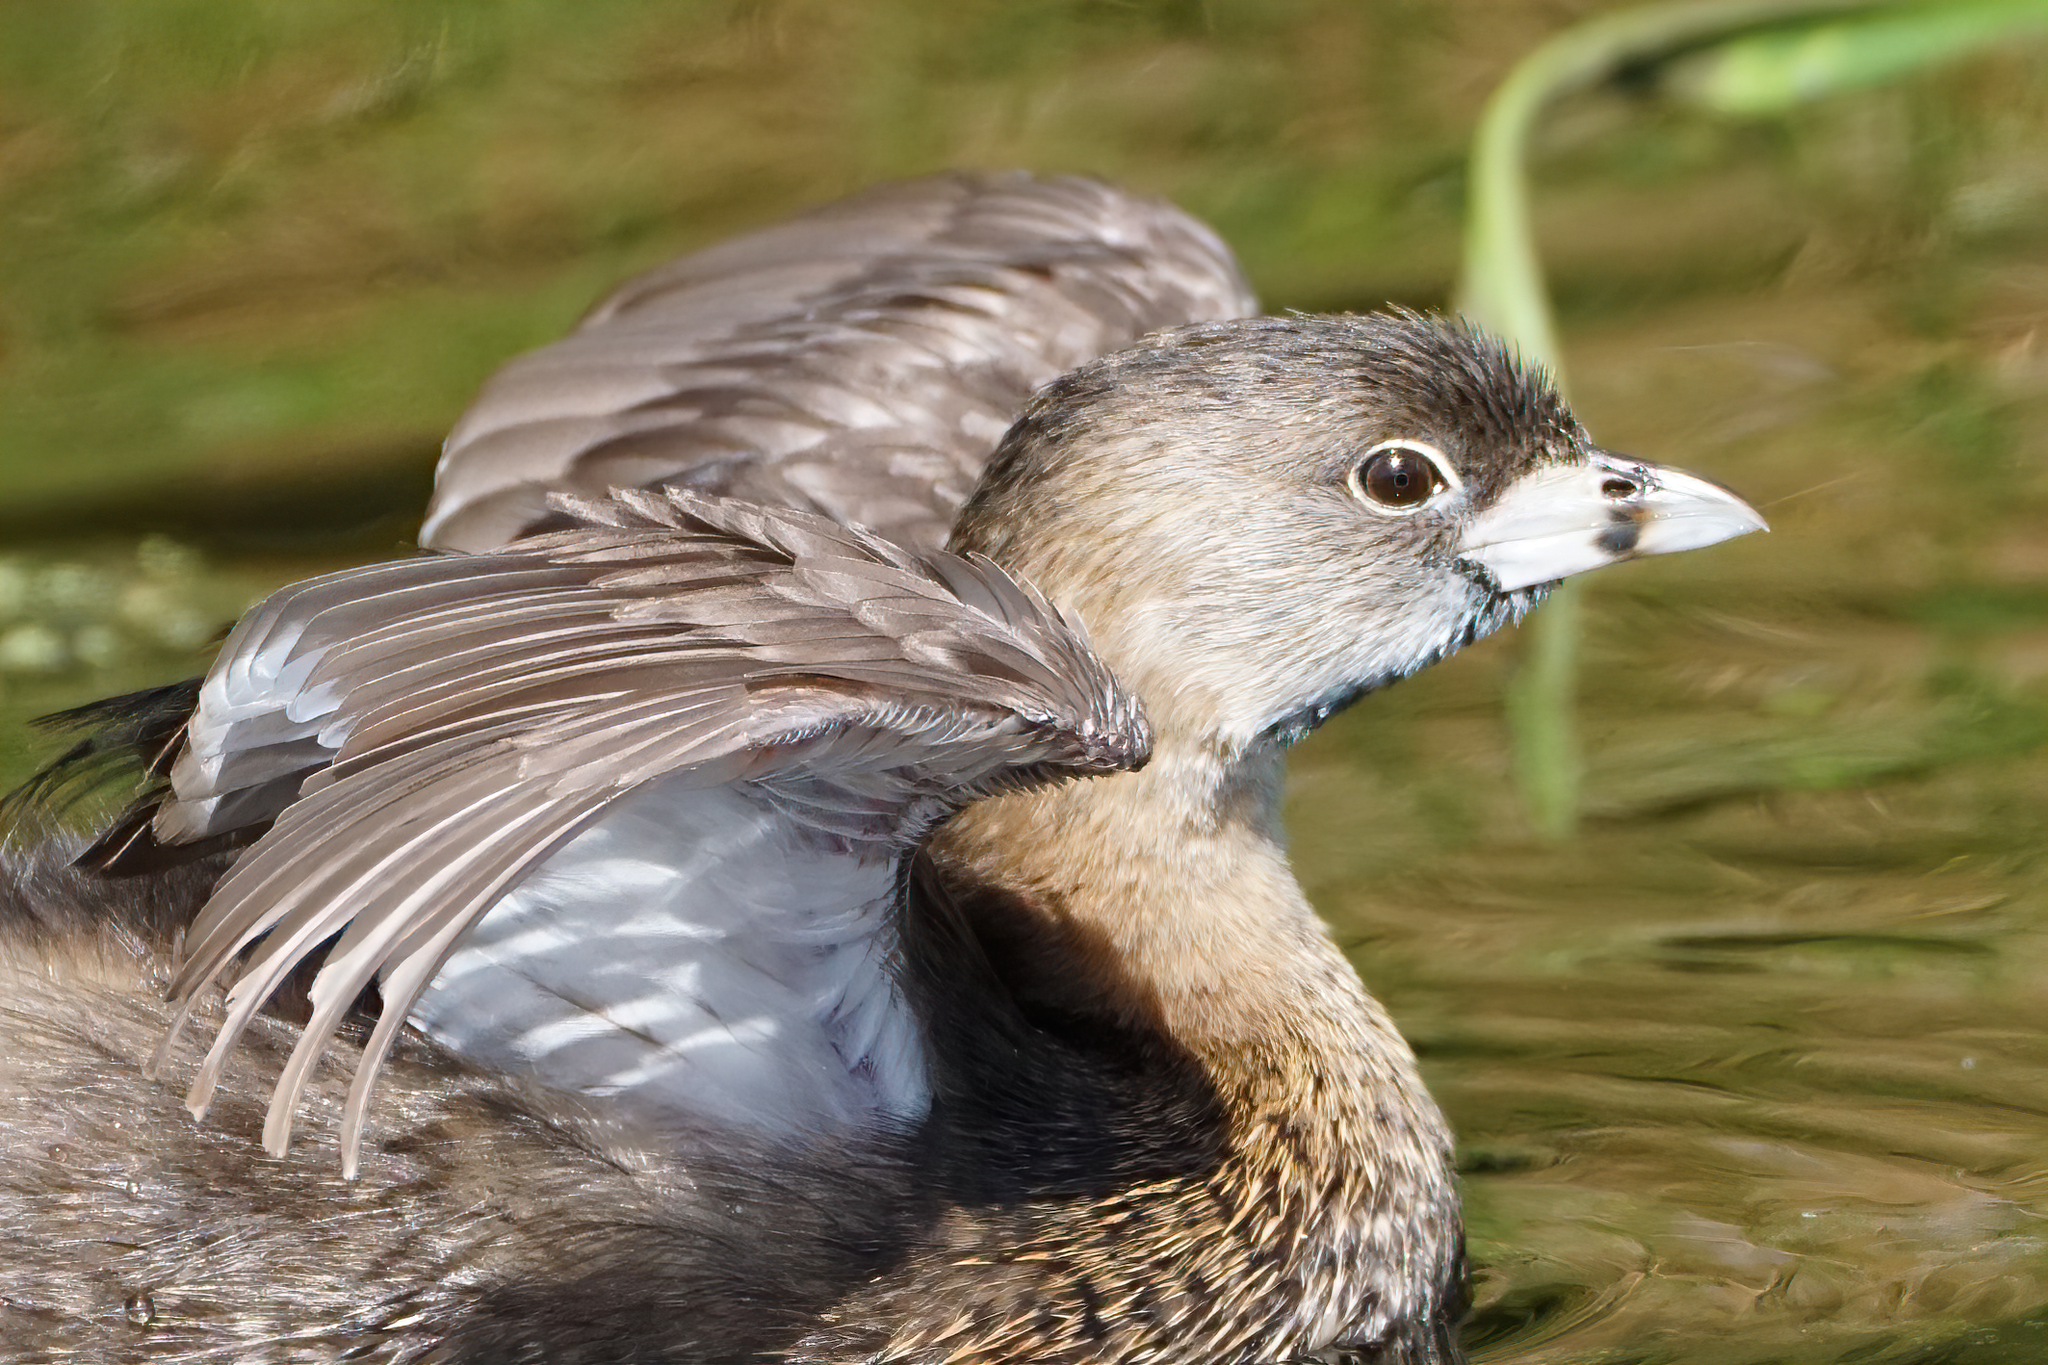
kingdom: Animalia
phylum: Chordata
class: Aves
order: Podicipediformes
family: Podicipedidae
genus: Podilymbus
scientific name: Podilymbus podiceps
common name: Pied-billed grebe
